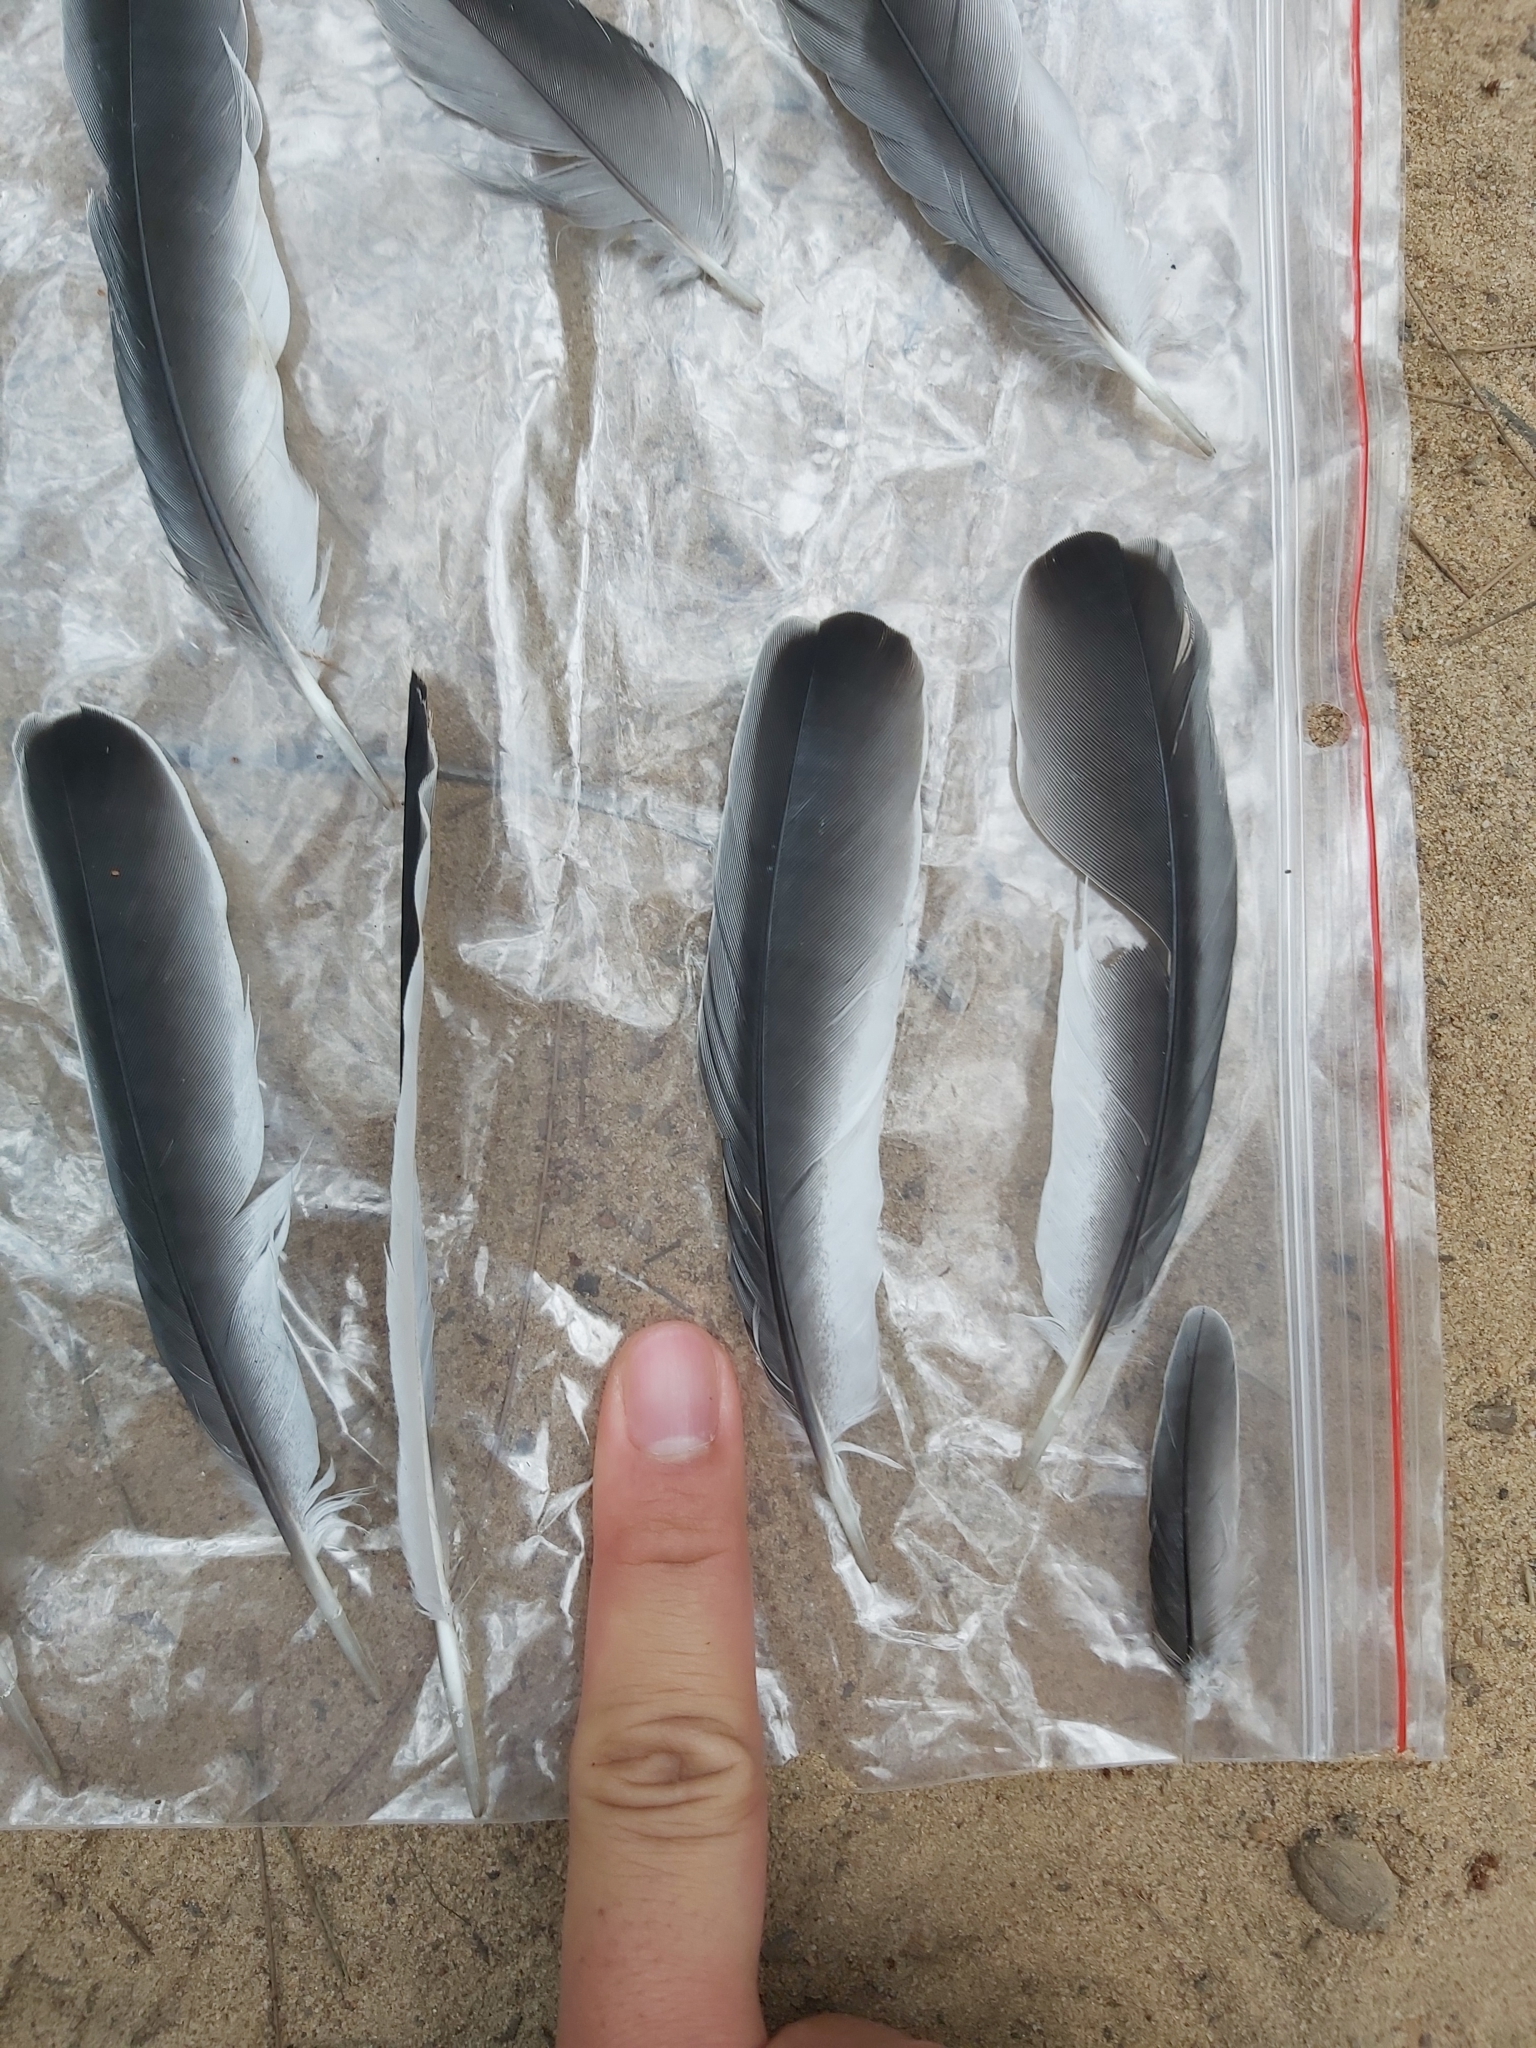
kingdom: Animalia
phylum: Chordata
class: Aves
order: Passeriformes
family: Campephagidae
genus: Coracina
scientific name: Coracina novaehollandiae
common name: Black-faced cuckooshrike
